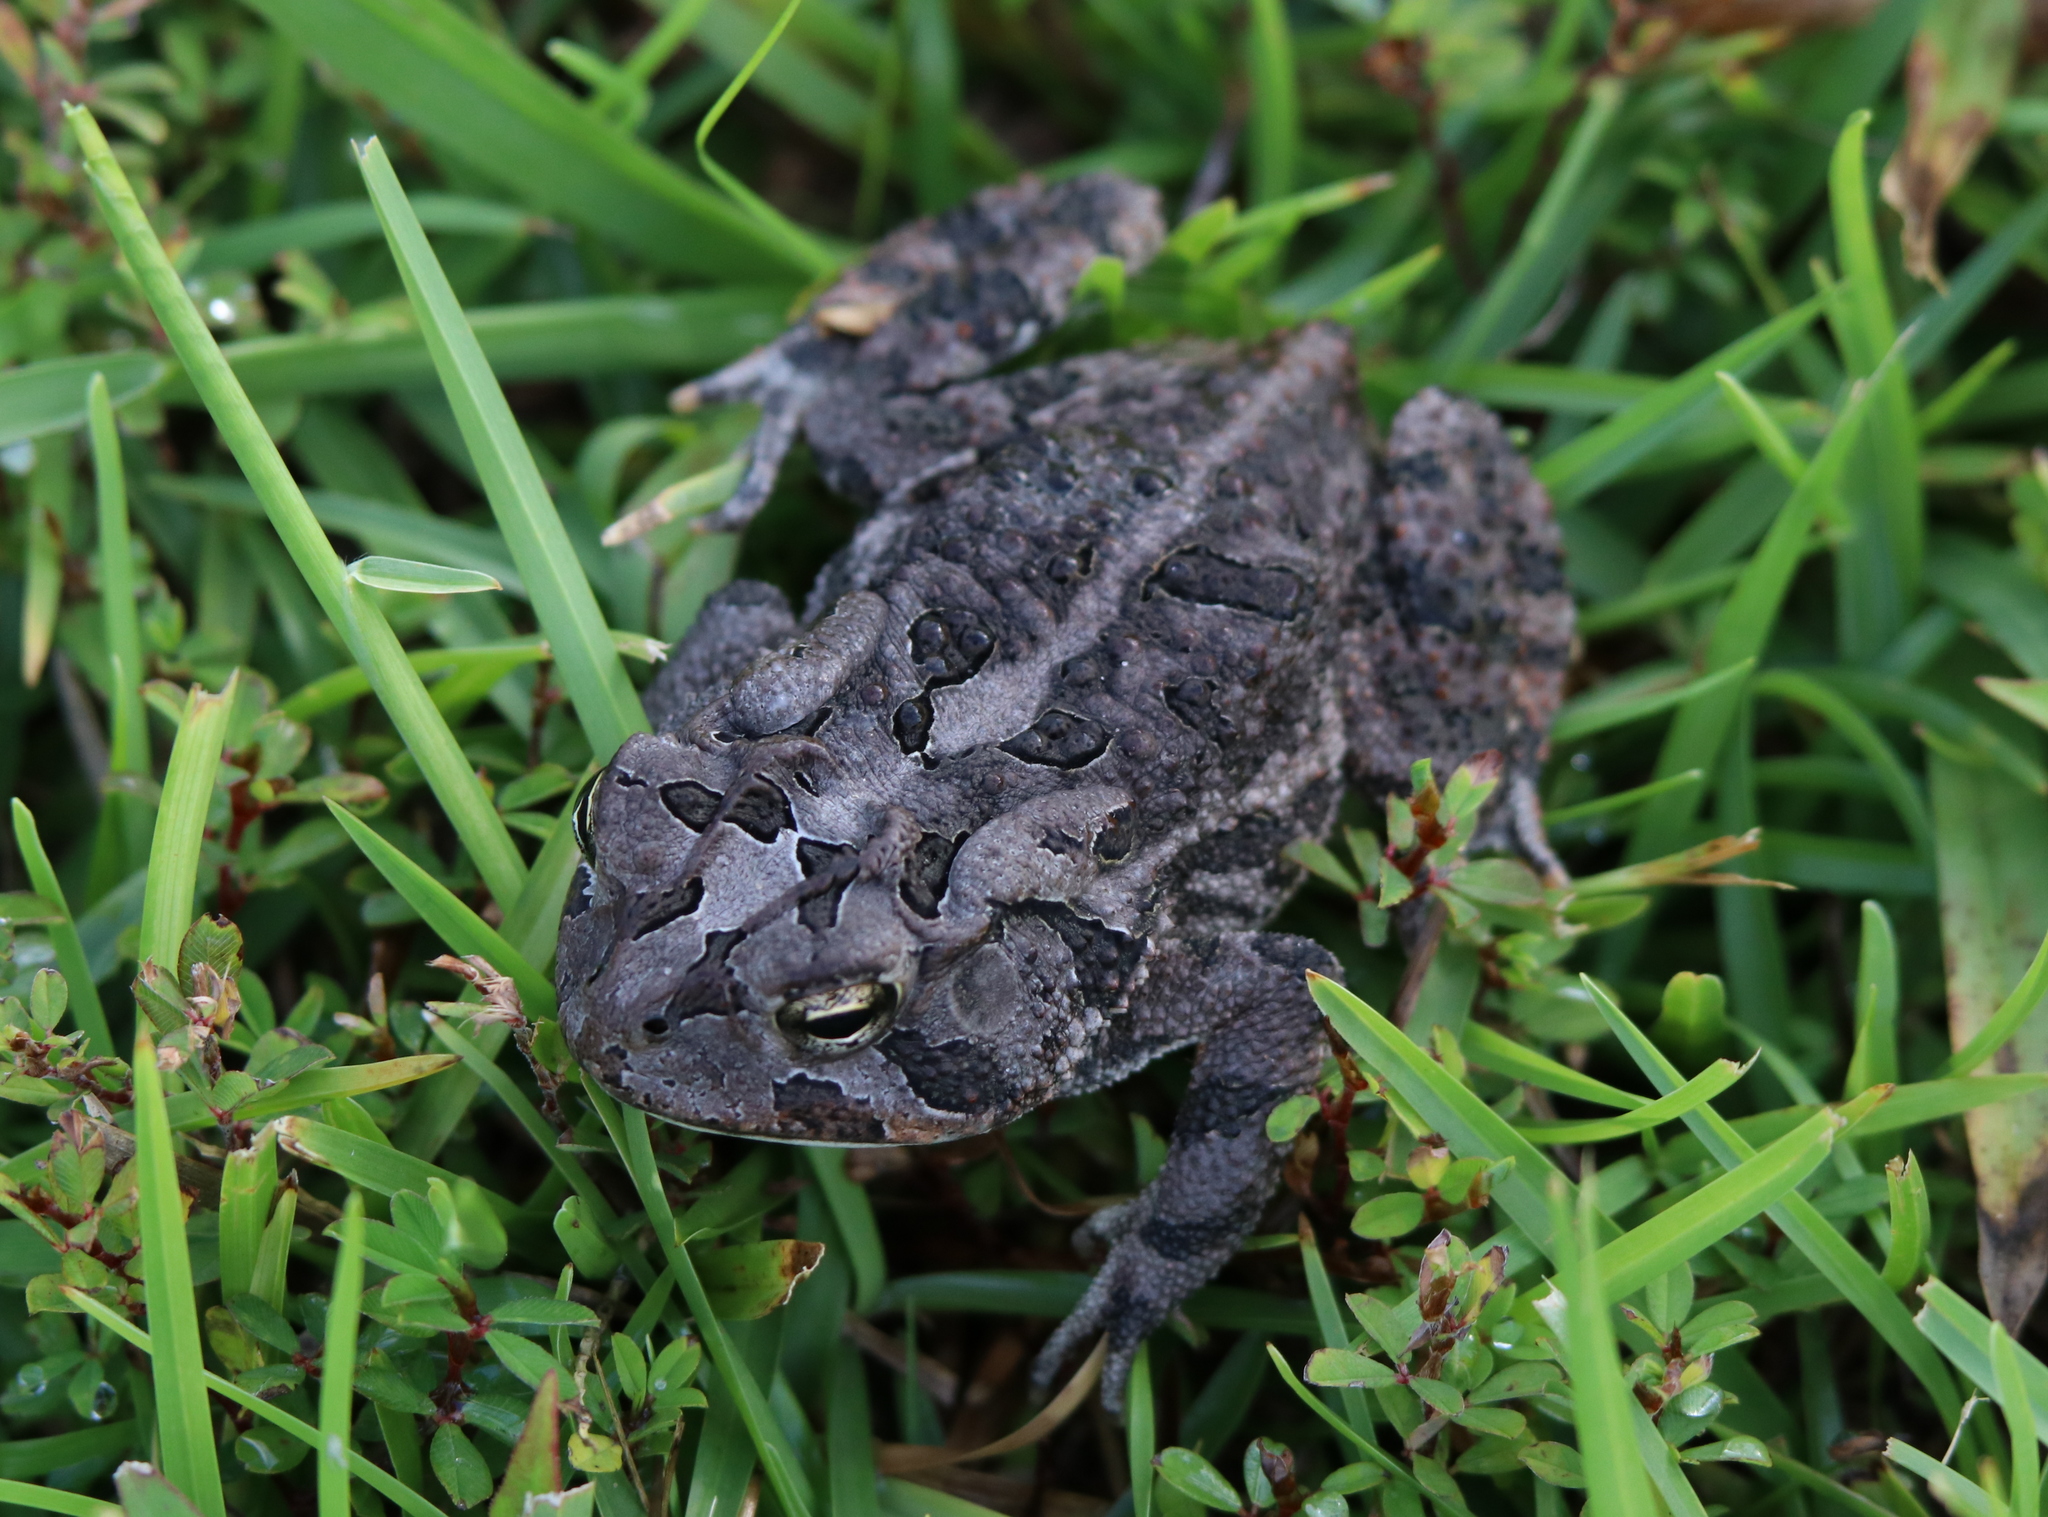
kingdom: Animalia
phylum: Chordata
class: Amphibia
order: Anura
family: Bufonidae
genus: Anaxyrus
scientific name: Anaxyrus terrestris
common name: Southern toad
